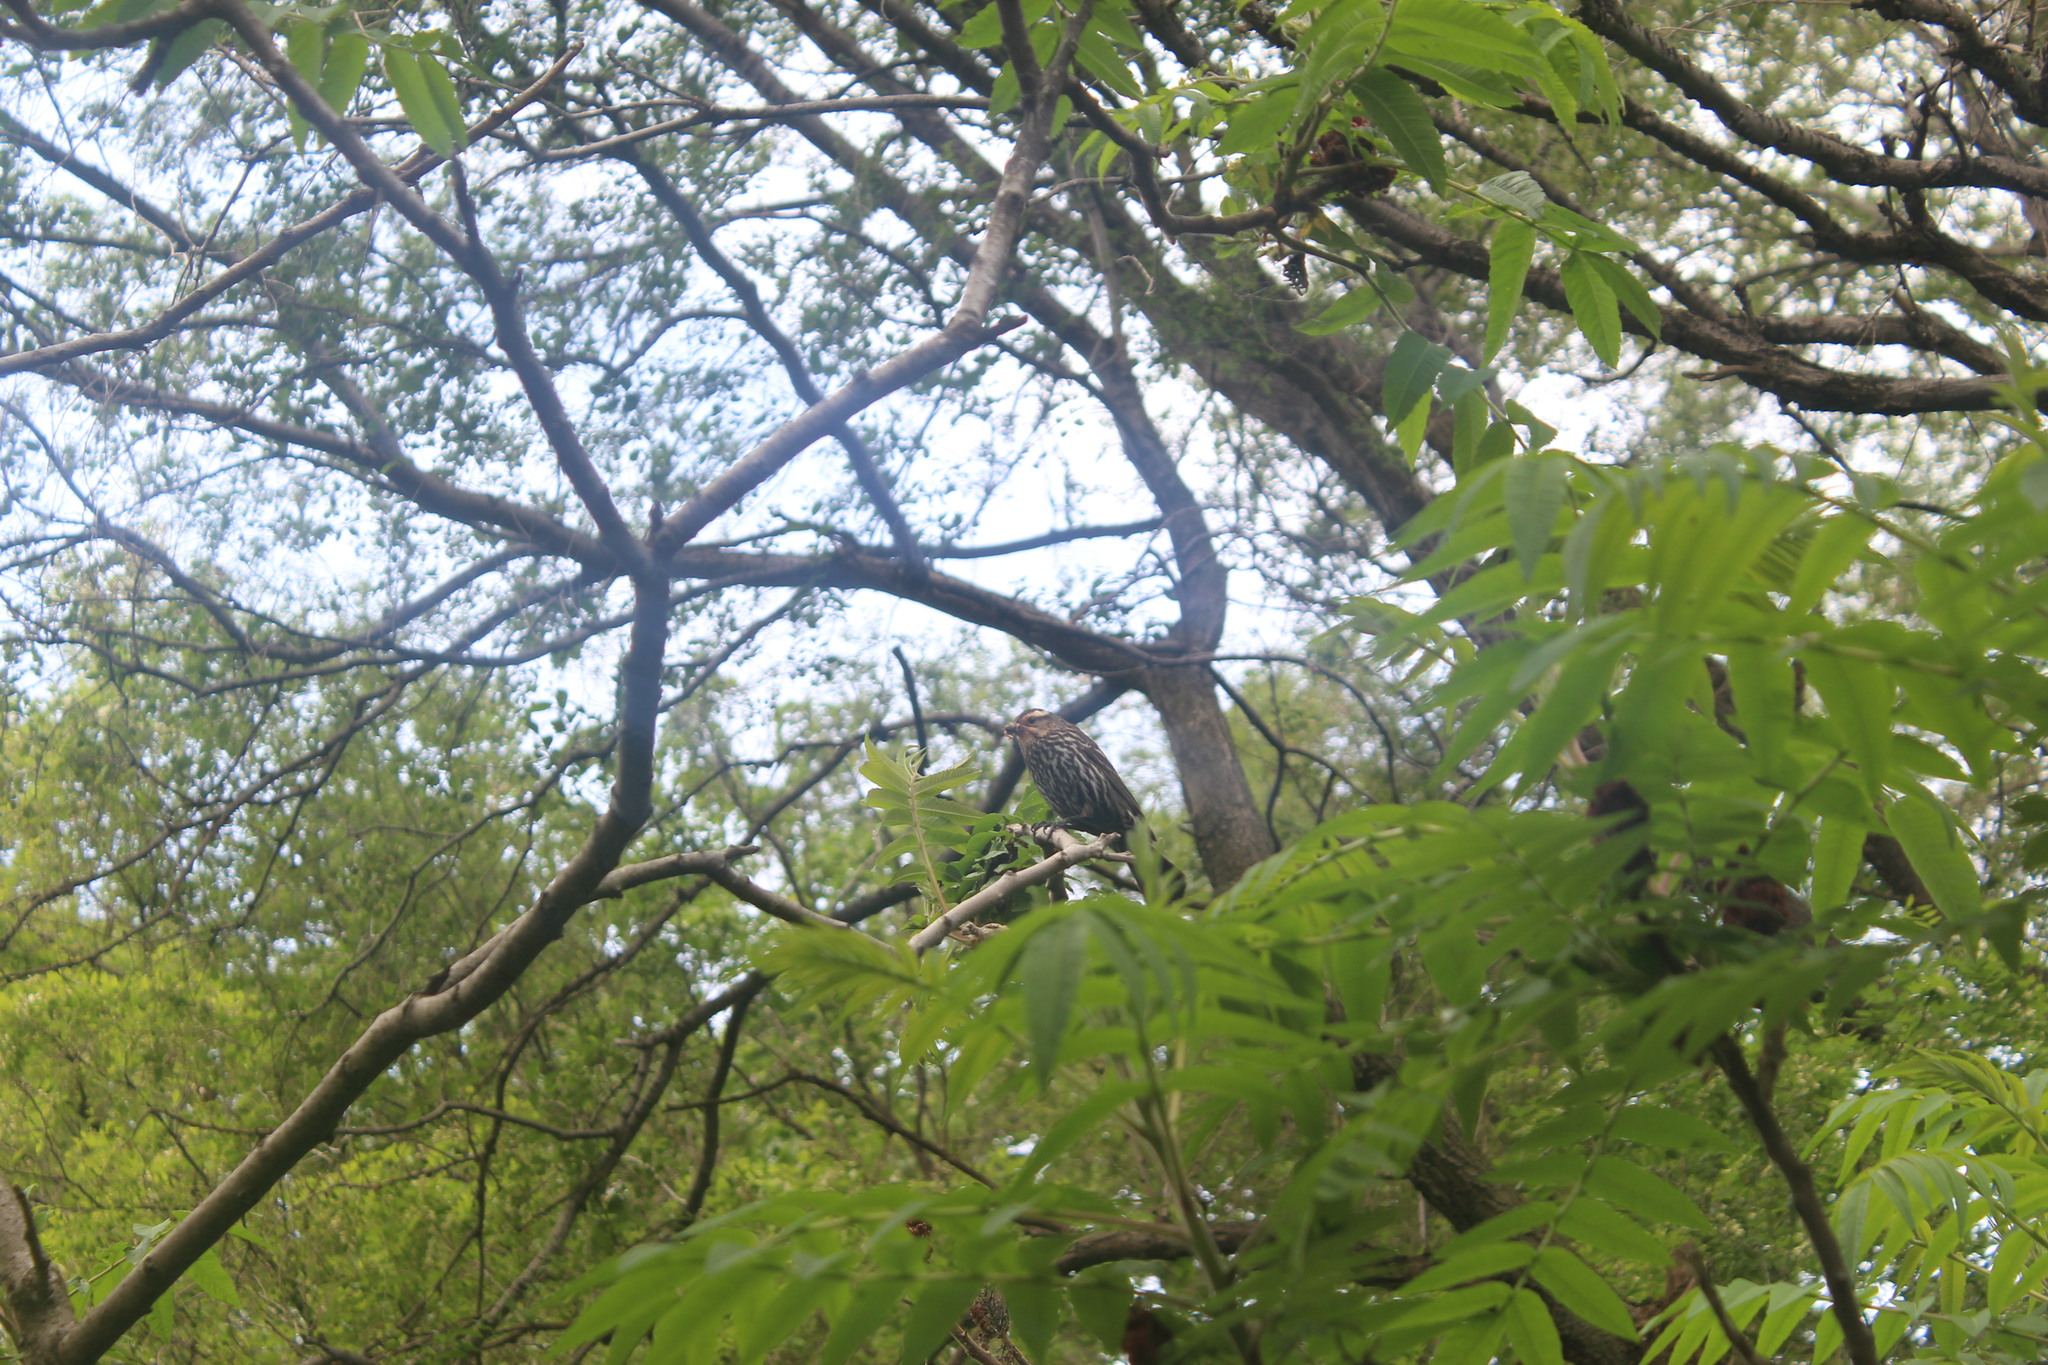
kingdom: Animalia
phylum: Chordata
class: Aves
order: Passeriformes
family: Icteridae
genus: Agelaius
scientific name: Agelaius phoeniceus
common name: Red-winged blackbird
